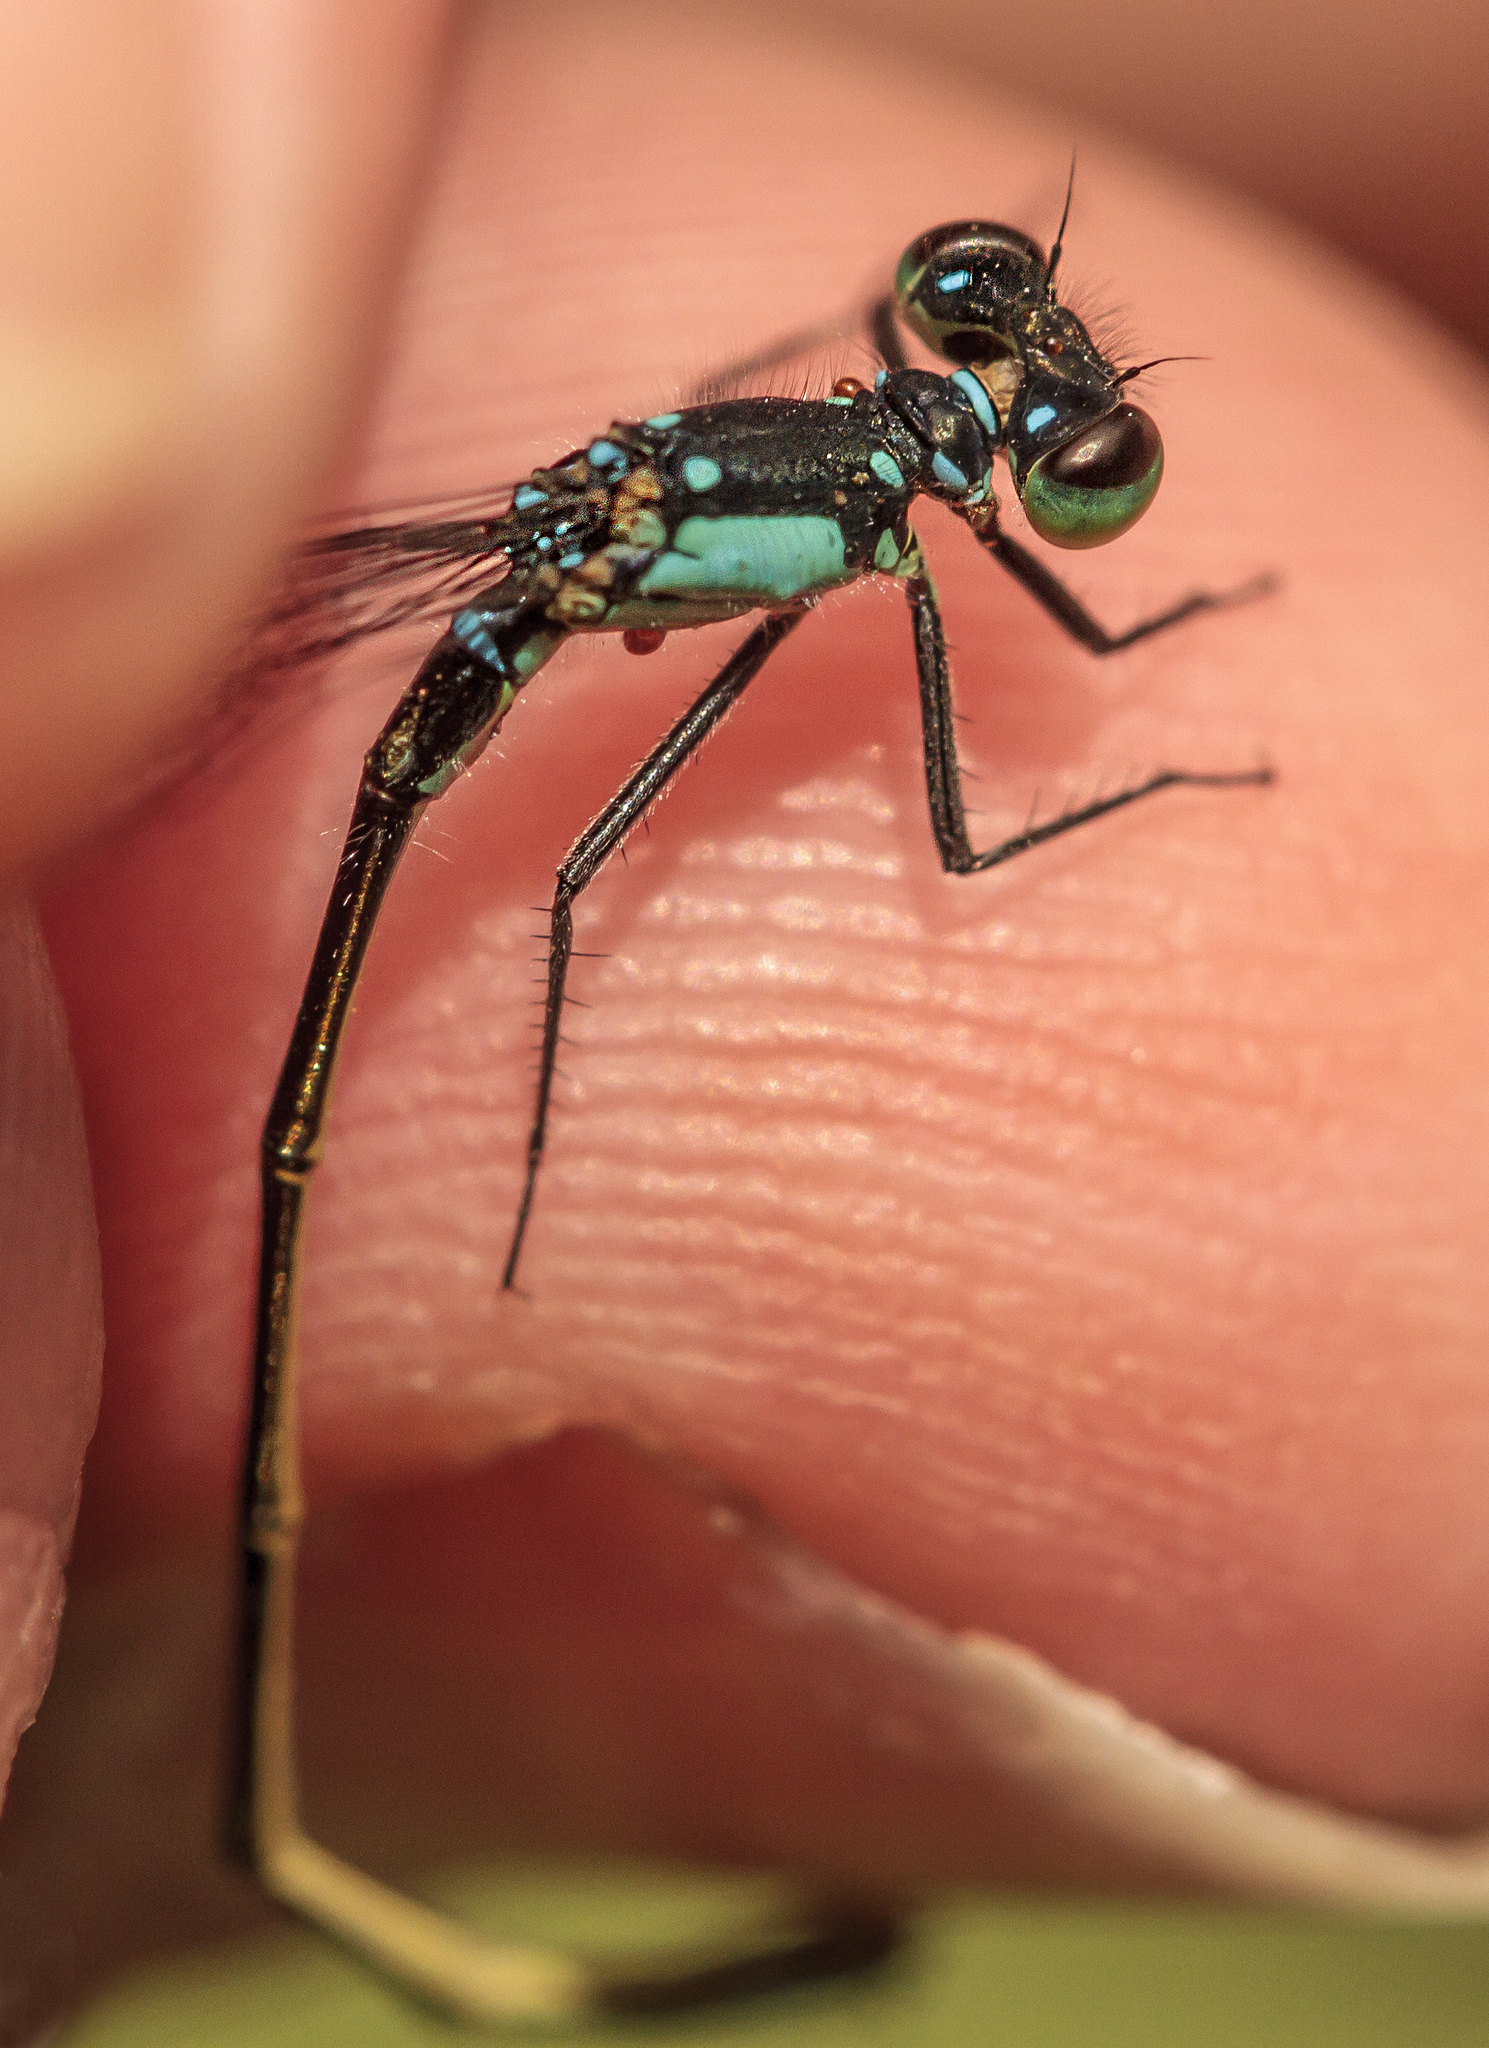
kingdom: Animalia
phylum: Arthropoda
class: Insecta
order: Odonata
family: Coenagrionidae
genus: Ischnura
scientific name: Ischnura cervula
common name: Pacific forktail
